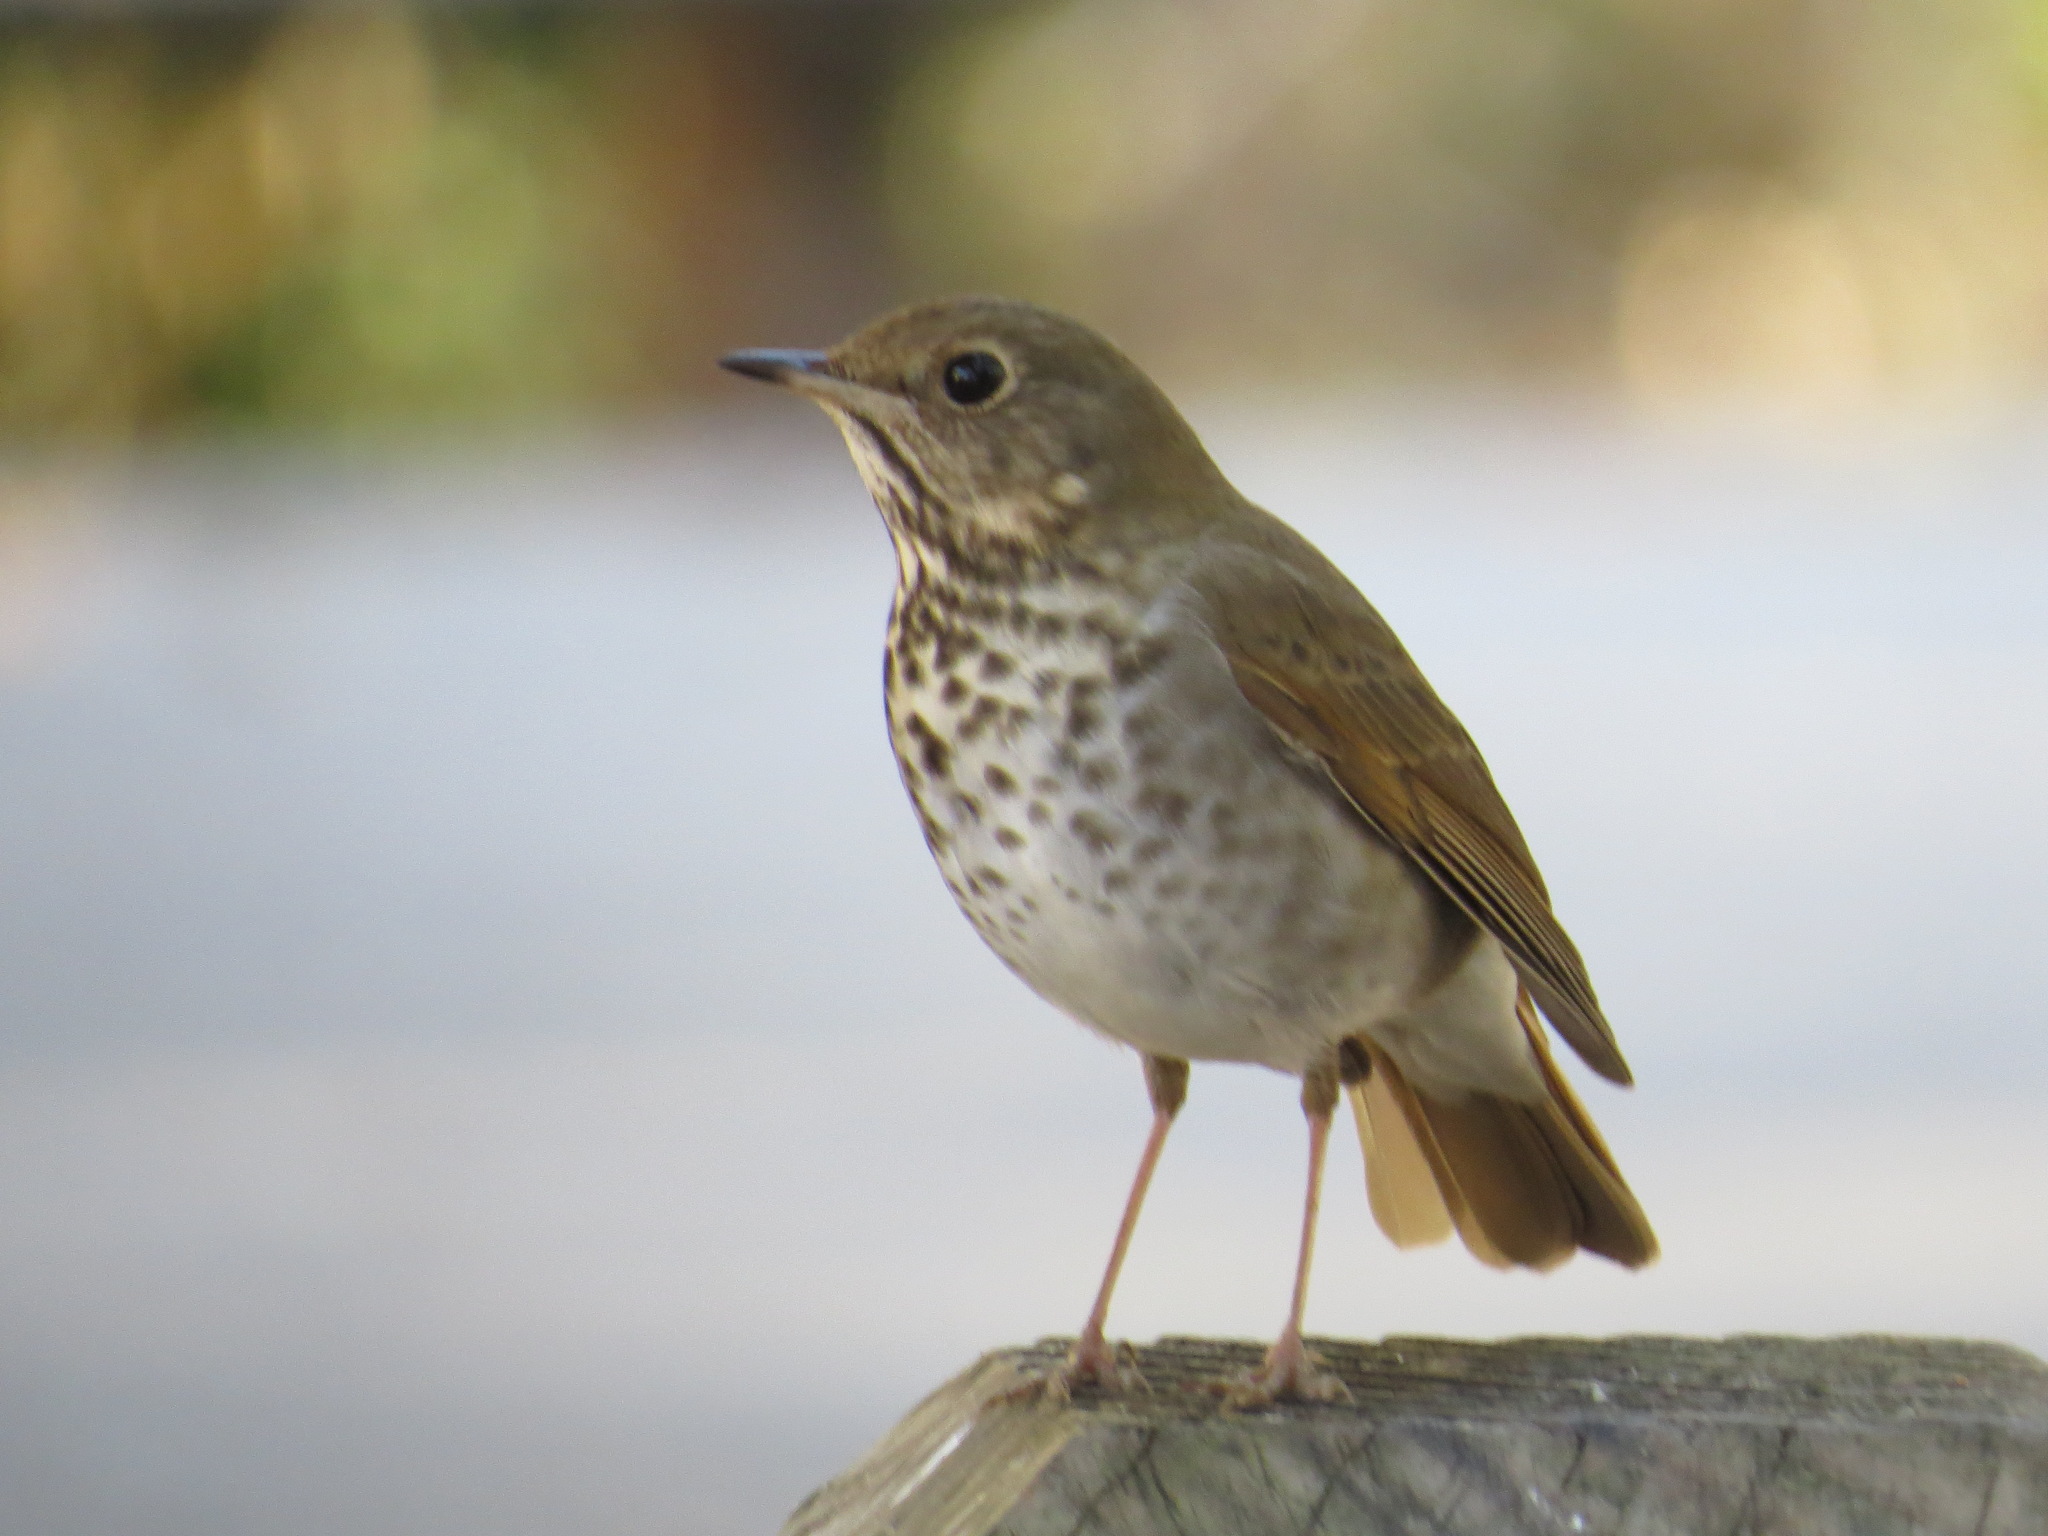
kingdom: Animalia
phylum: Chordata
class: Aves
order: Passeriformes
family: Turdidae
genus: Catharus
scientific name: Catharus guttatus
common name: Hermit thrush
